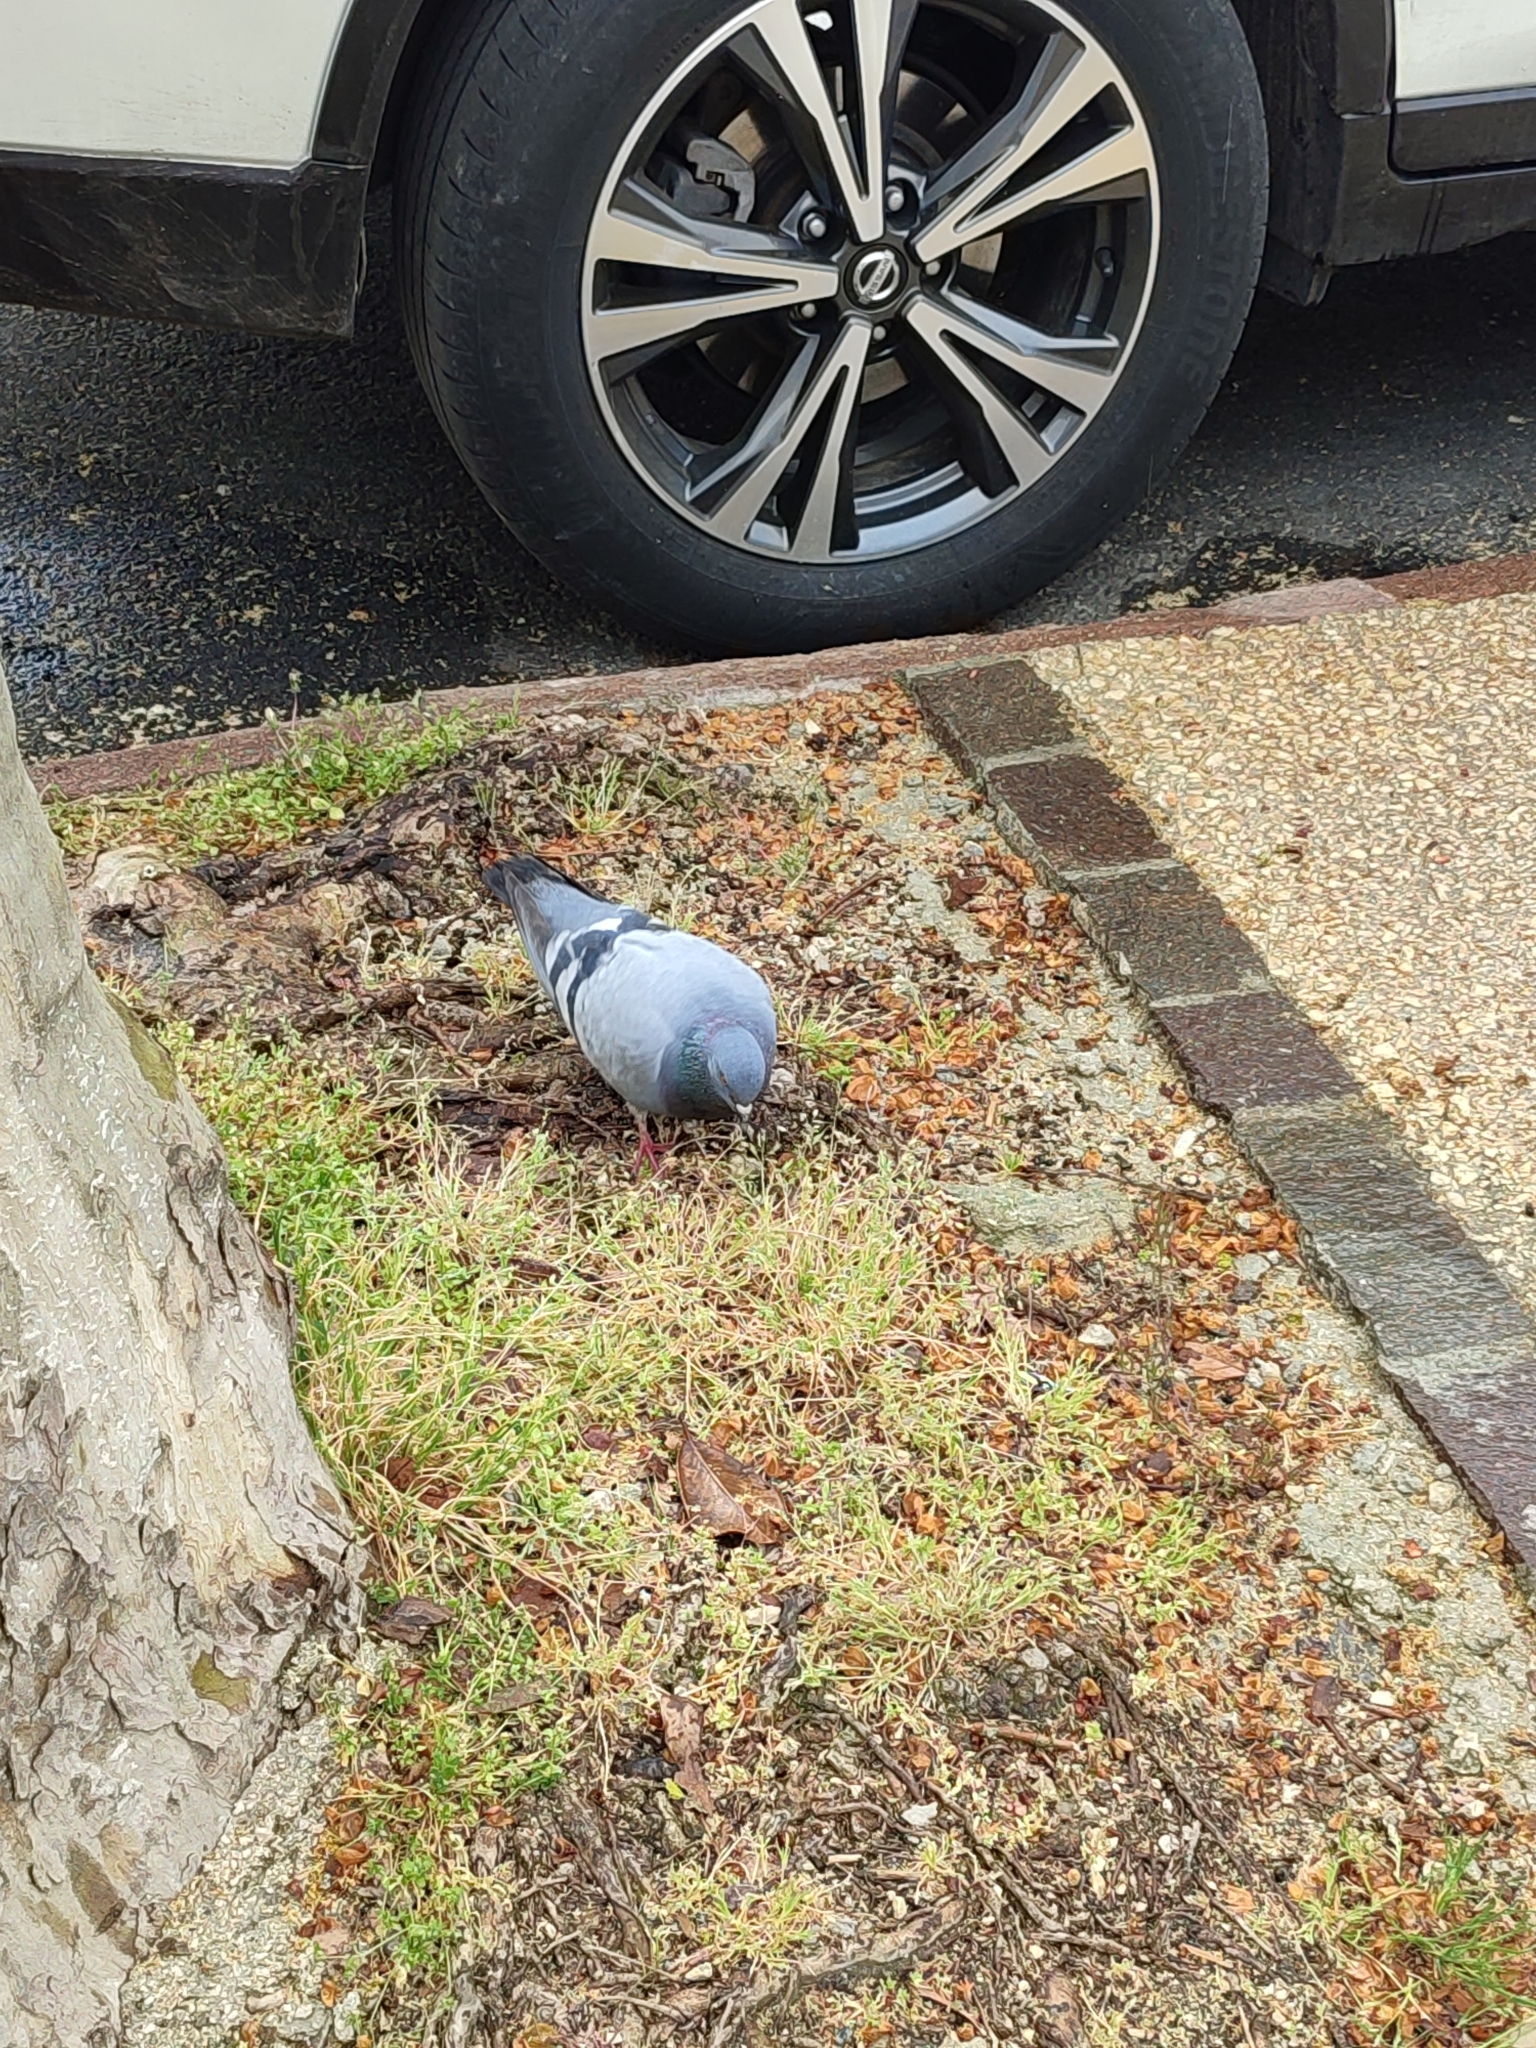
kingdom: Animalia
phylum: Chordata
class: Aves
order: Columbiformes
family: Columbidae
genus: Columba
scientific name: Columba livia
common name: Rock pigeon
